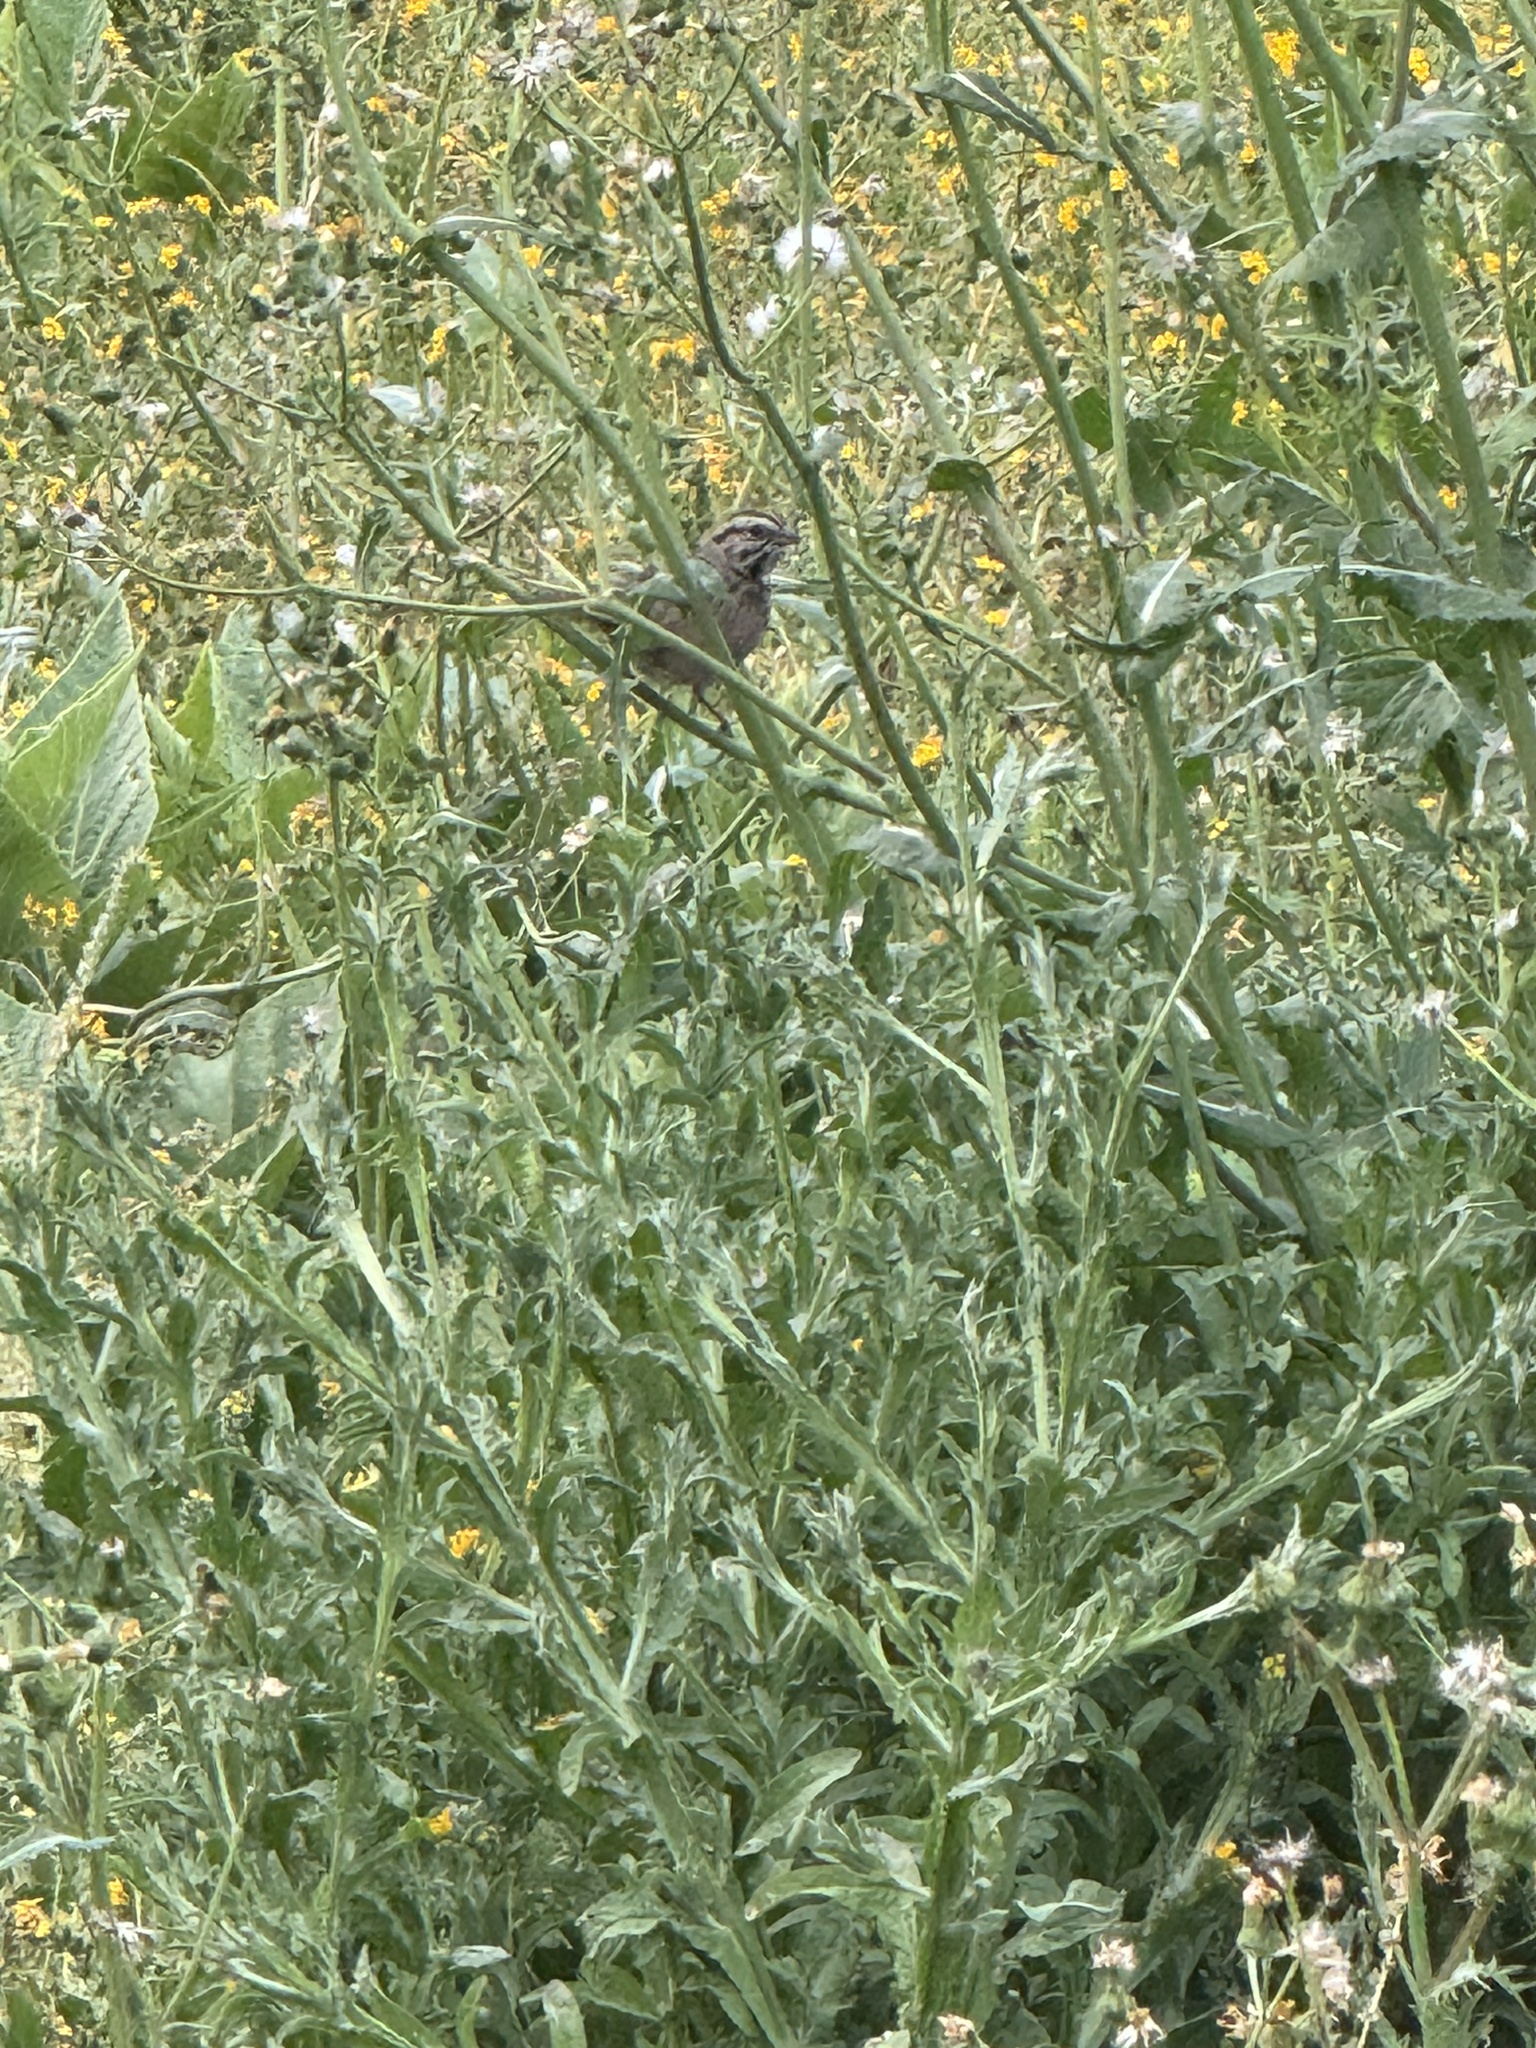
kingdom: Animalia
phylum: Chordata
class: Aves
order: Passeriformes
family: Passerellidae
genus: Melospiza
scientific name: Melospiza melodia
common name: Song sparrow
